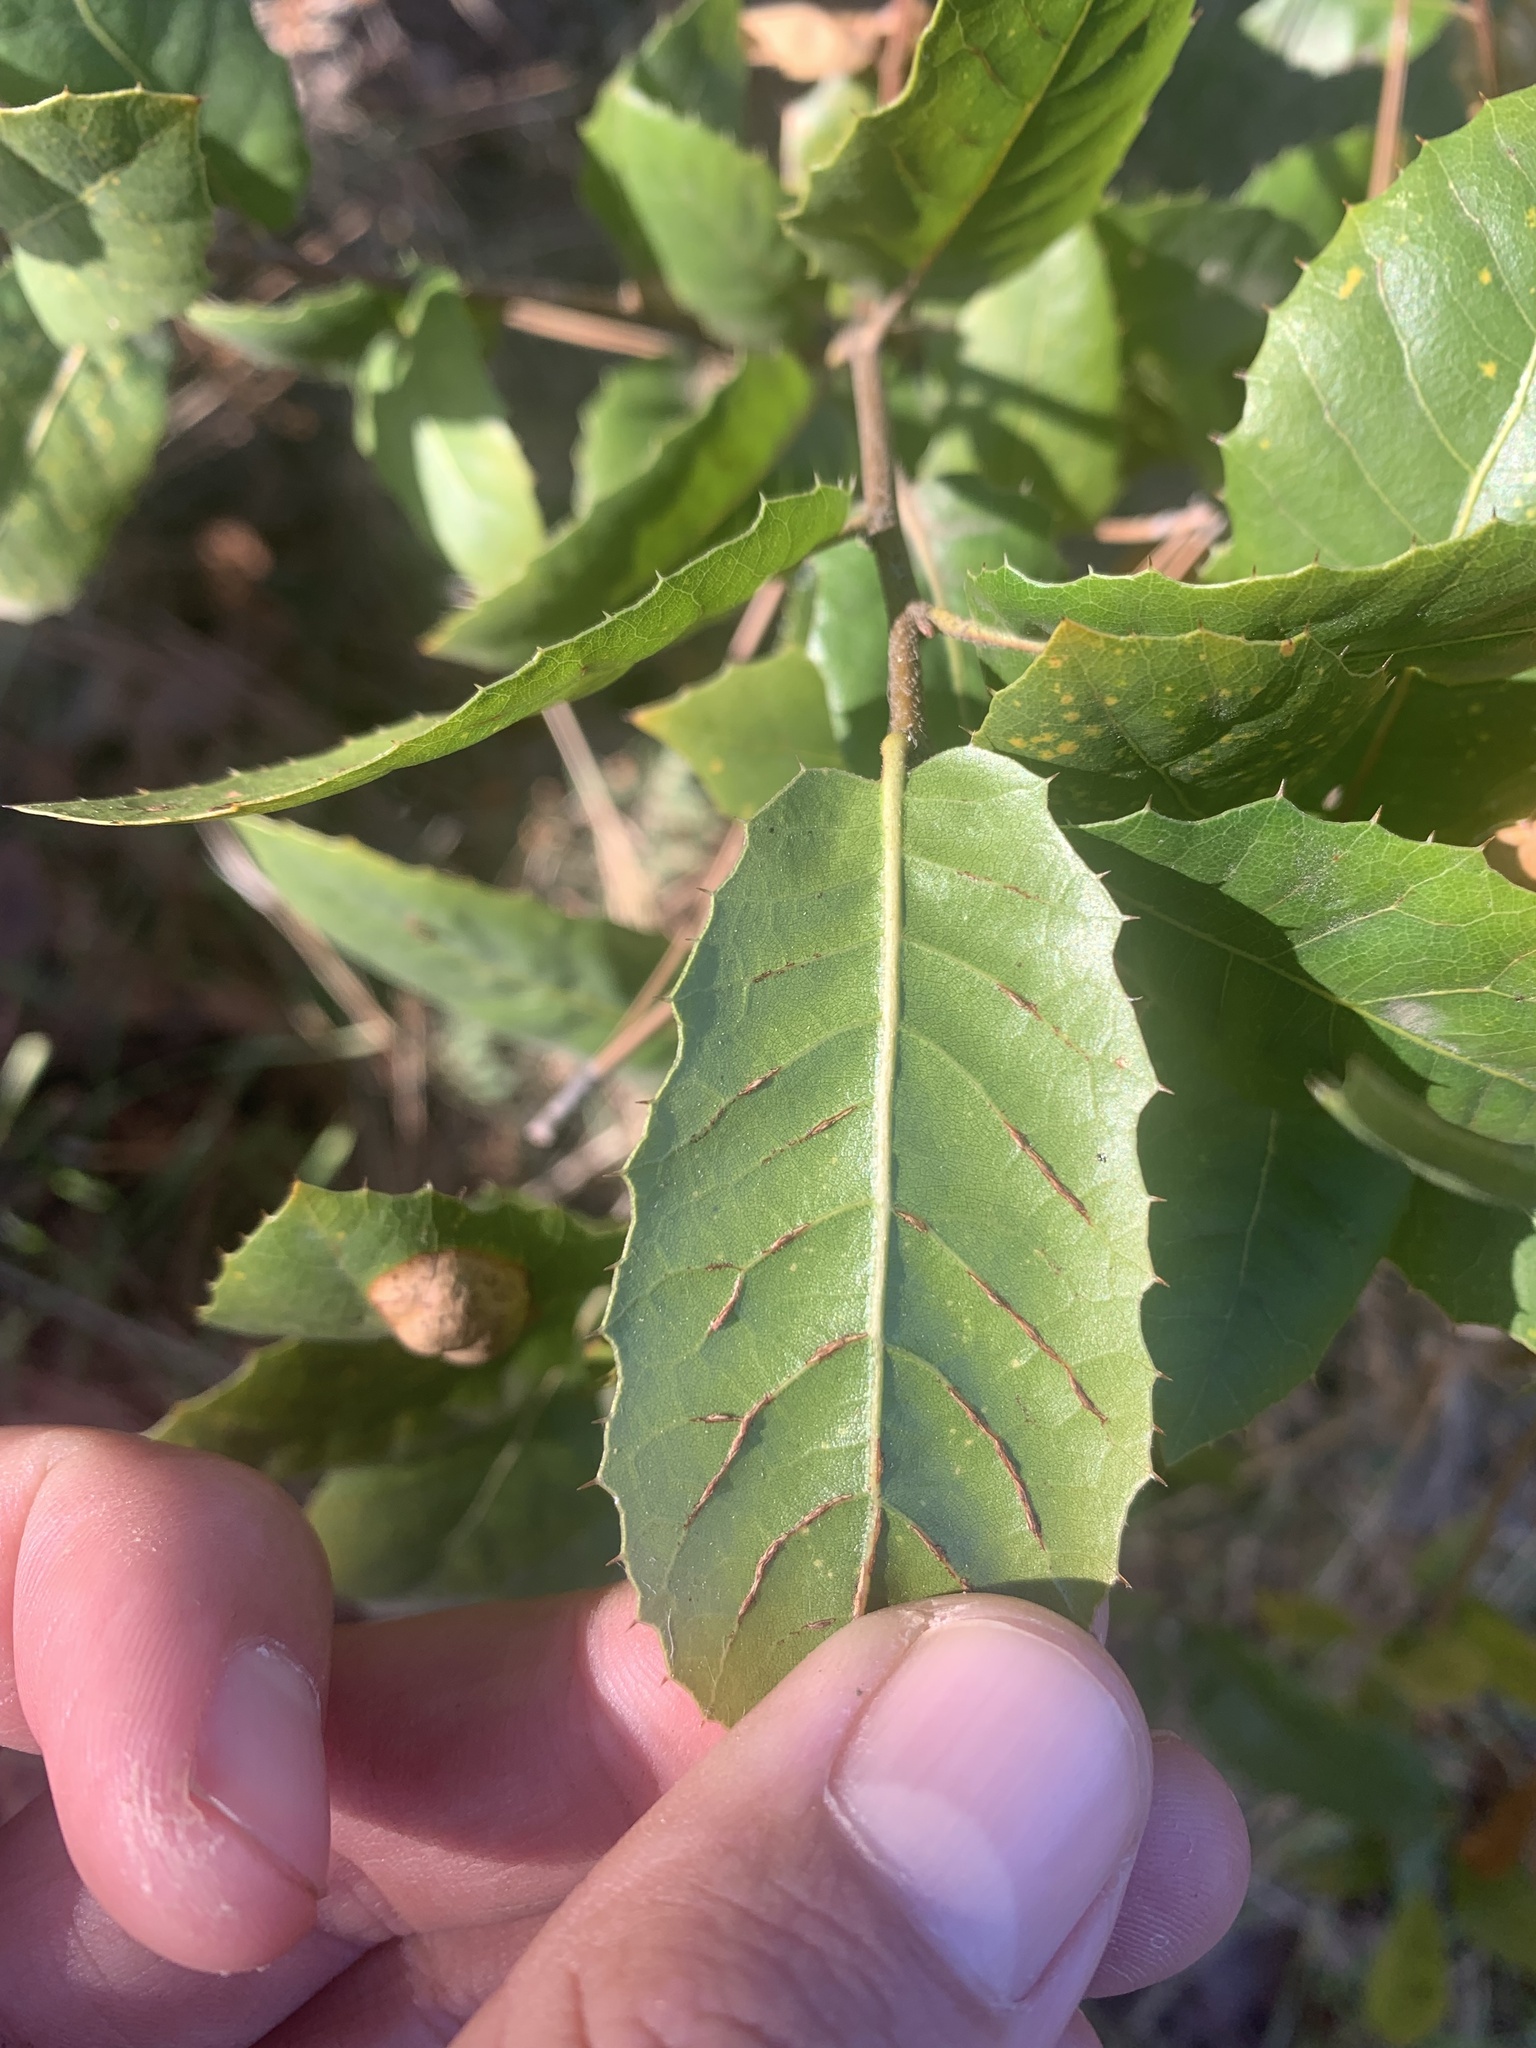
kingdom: Plantae
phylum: Tracheophyta
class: Magnoliopsida
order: Fagales
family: Fagaceae
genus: Quercus
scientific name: Quercus wislizeni
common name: Interior live oak
